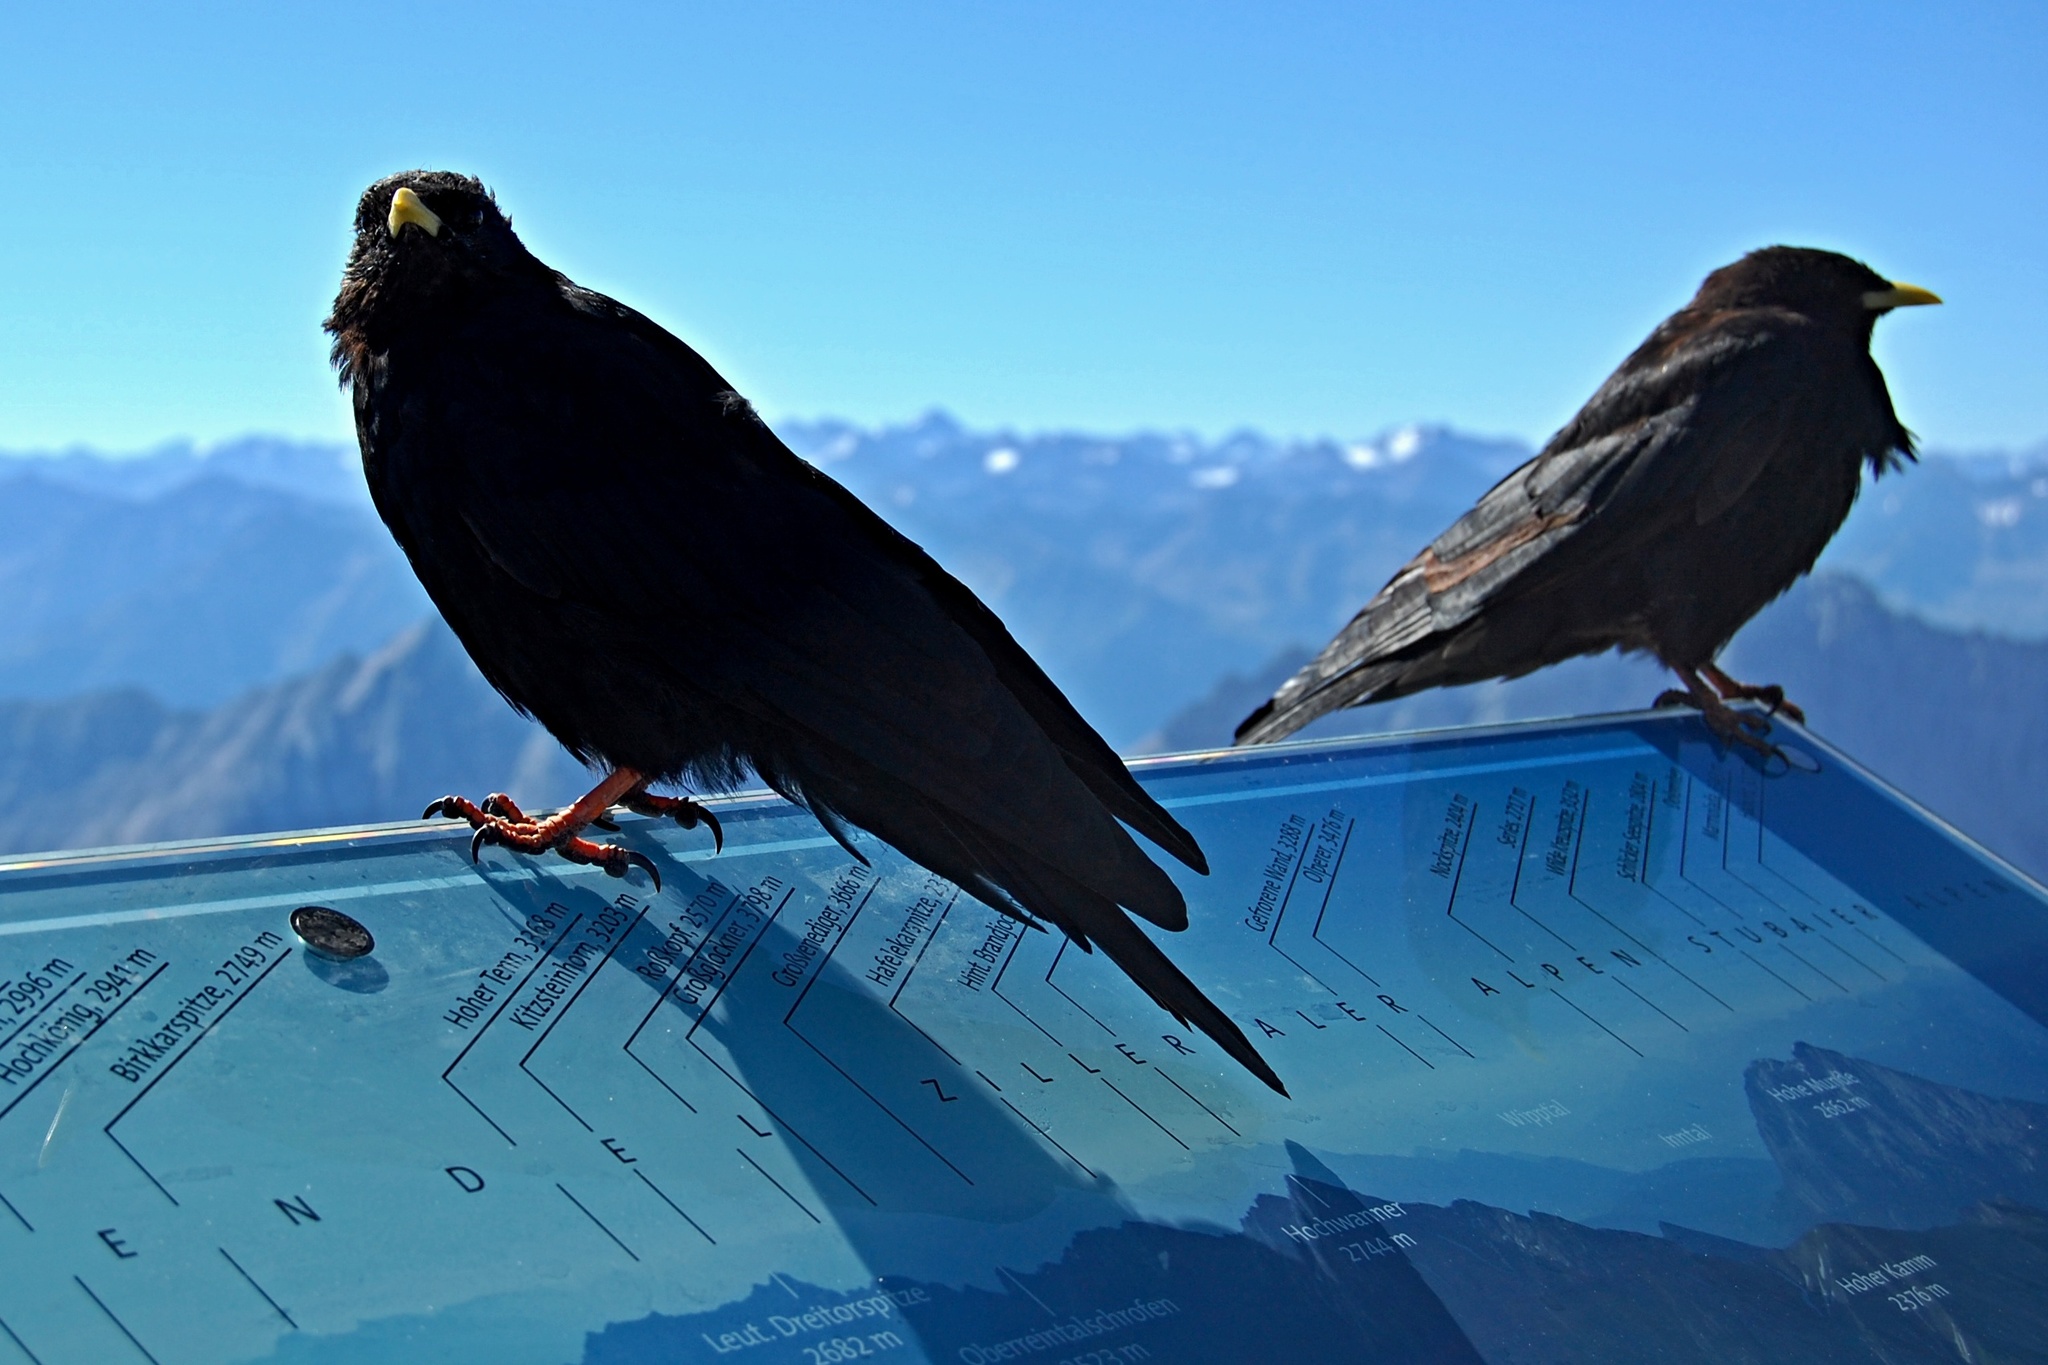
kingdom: Animalia
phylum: Chordata
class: Aves
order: Passeriformes
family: Corvidae
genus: Pyrrhocorax
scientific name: Pyrrhocorax graculus
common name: Alpine chough
